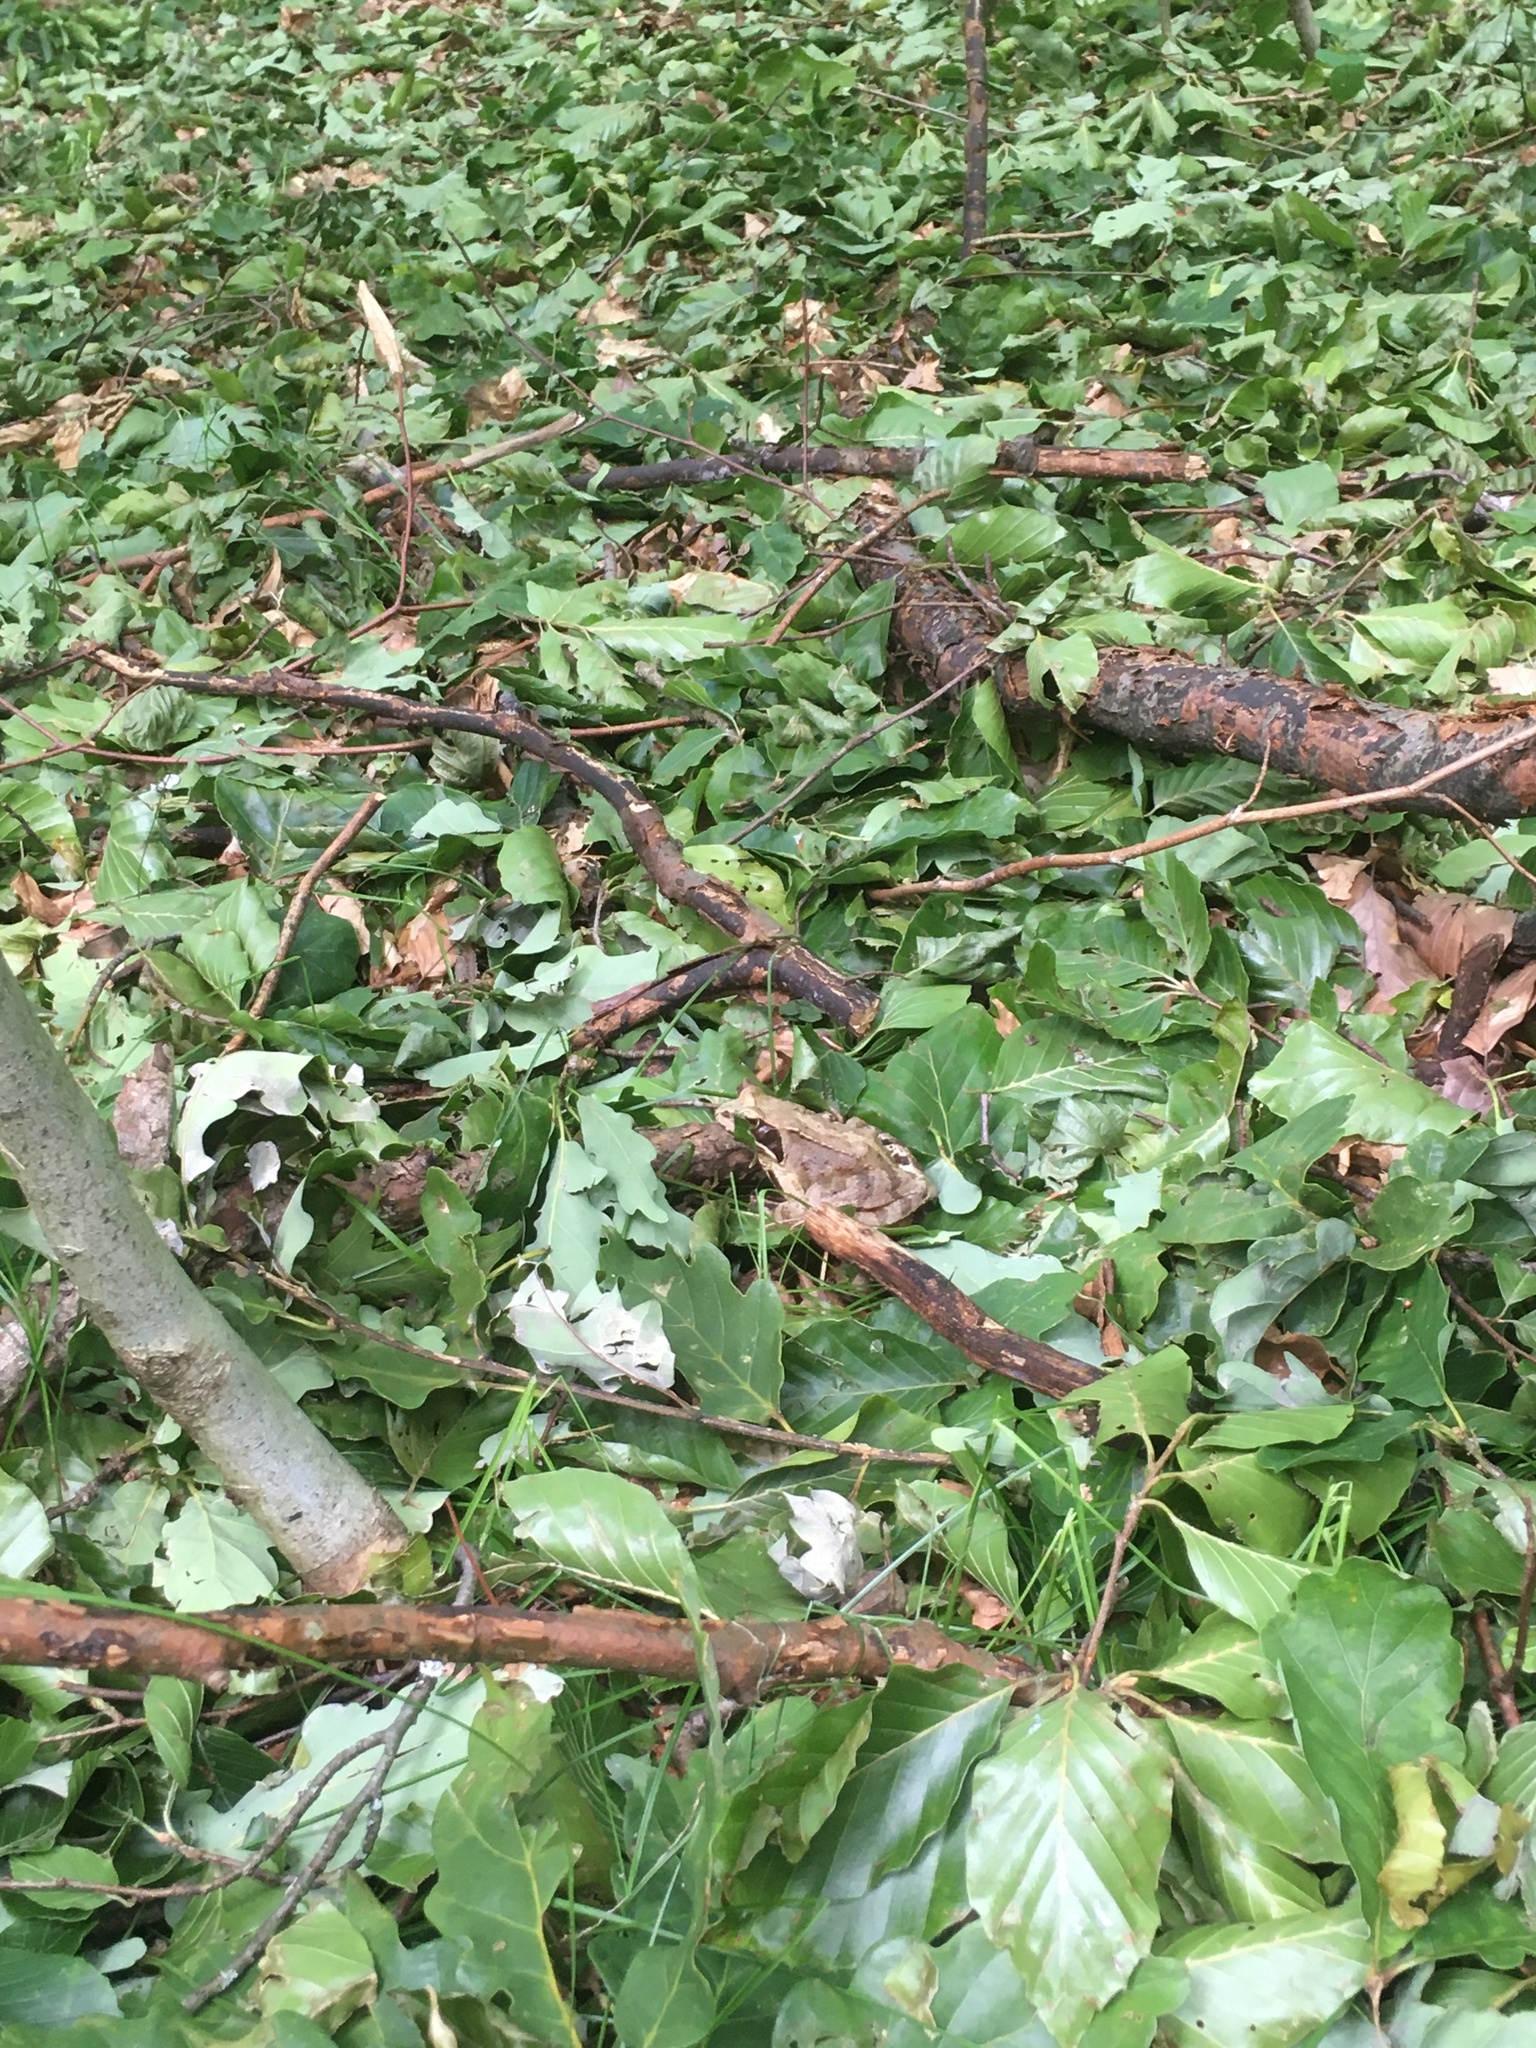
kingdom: Animalia
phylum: Chordata
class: Amphibia
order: Anura
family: Ranidae
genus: Rana
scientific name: Rana temporaria
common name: Common frog
